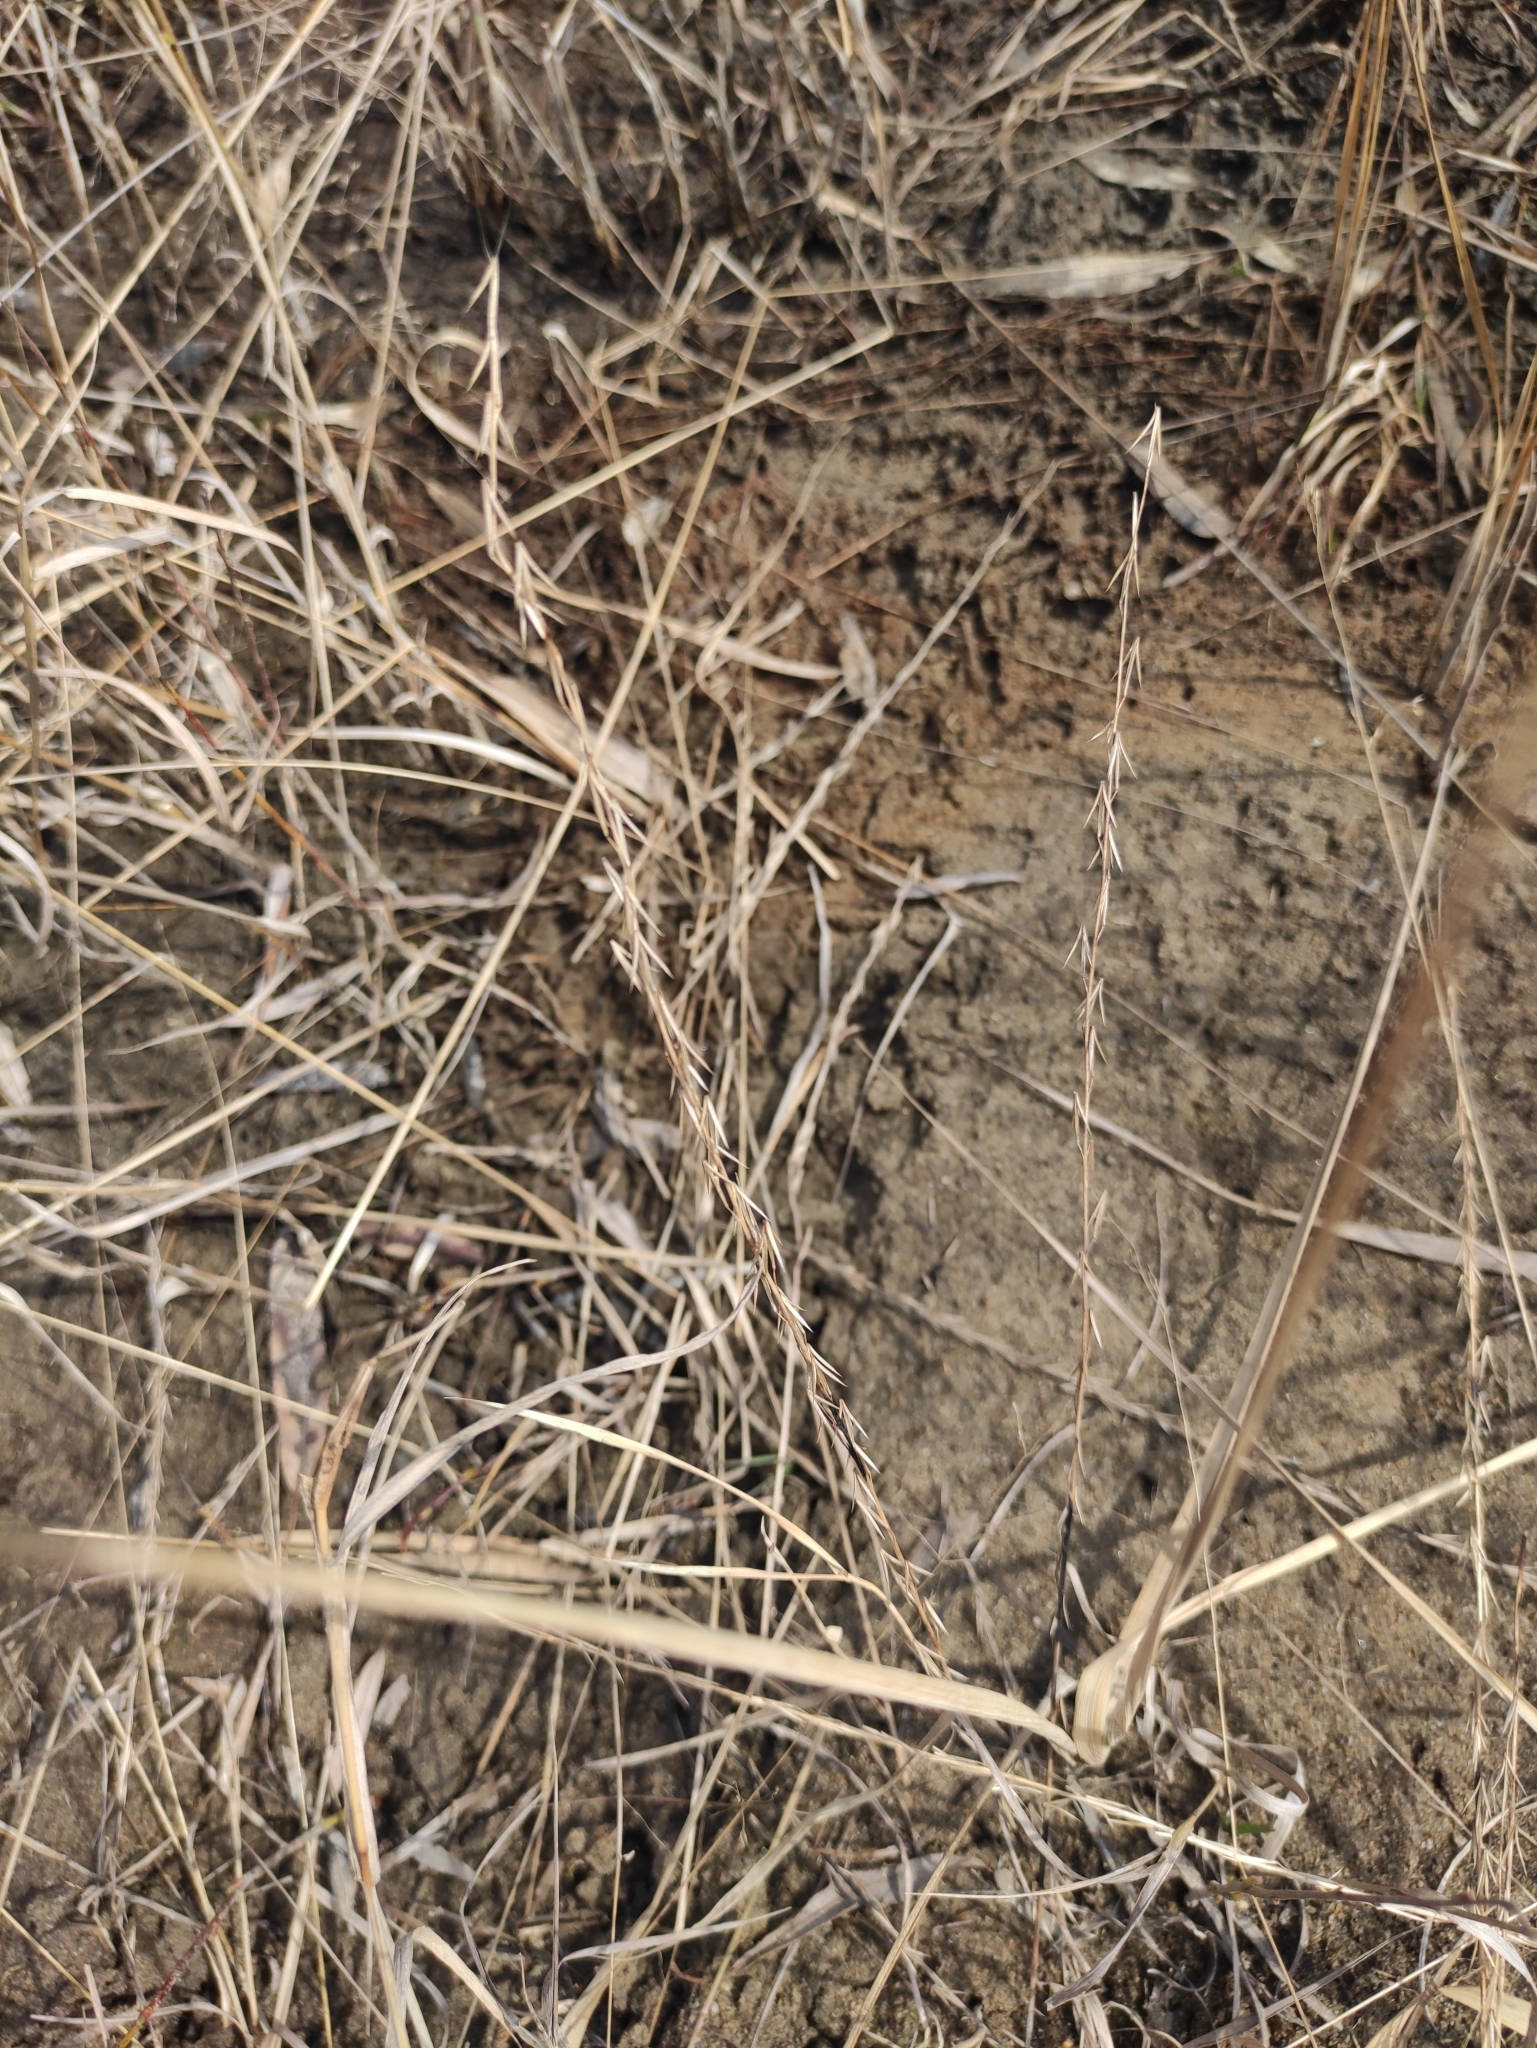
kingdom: Plantae
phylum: Tracheophyta
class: Liliopsida
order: Alismatales
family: Juncaginaceae
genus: Triglochin
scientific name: Triglochin palustris
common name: Marsh arrowgrass
